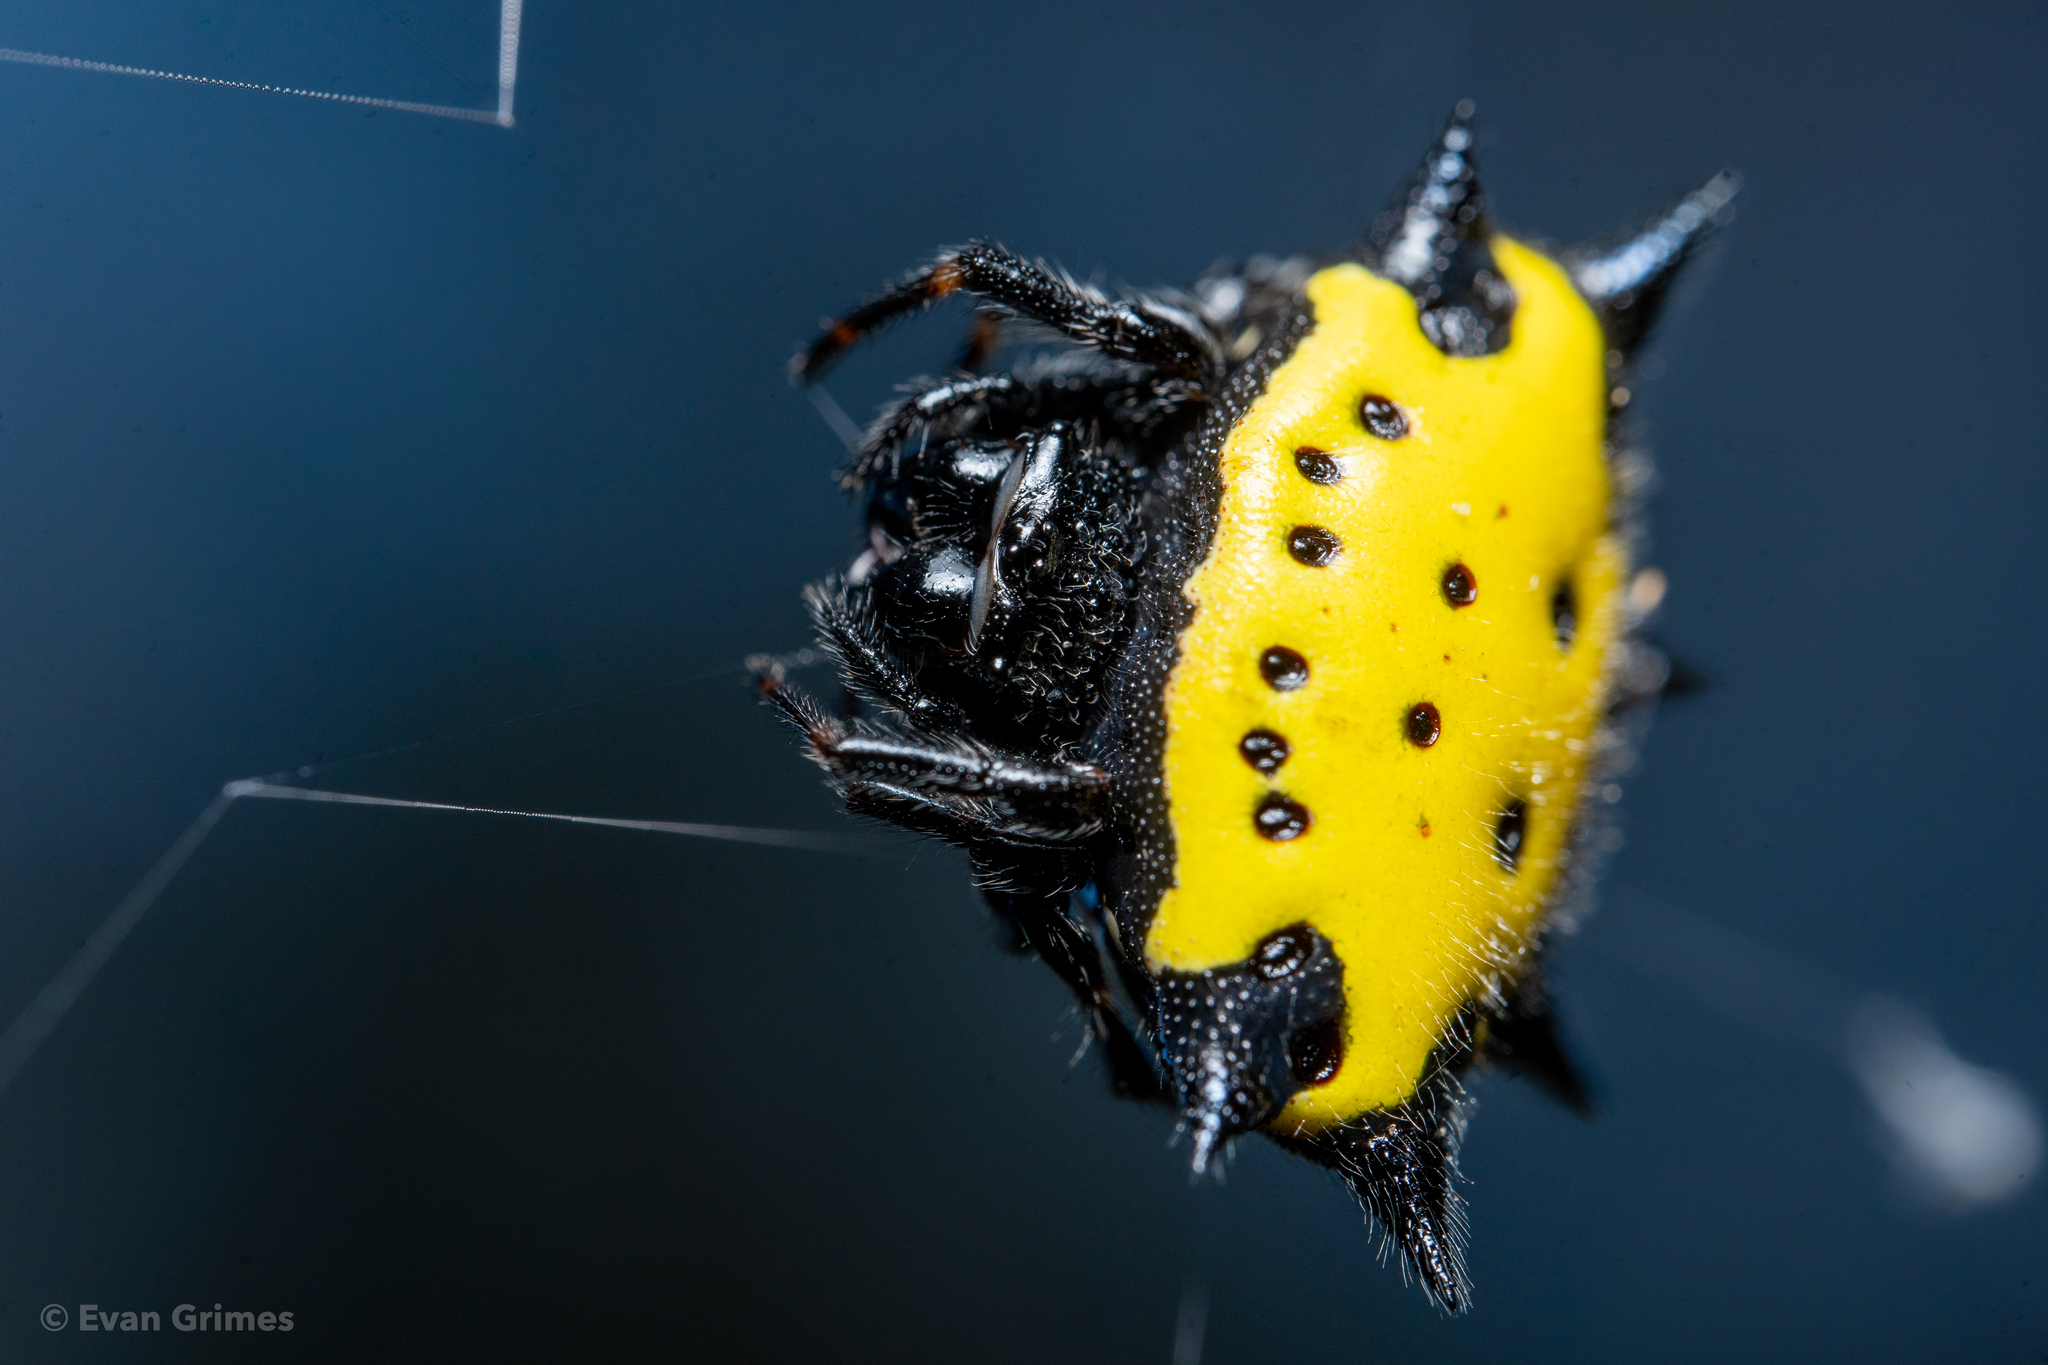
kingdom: Animalia
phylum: Arthropoda
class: Arachnida
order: Araneae
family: Araneidae
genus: Gasteracantha
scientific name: Gasteracantha cancriformis
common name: Orb weavers
